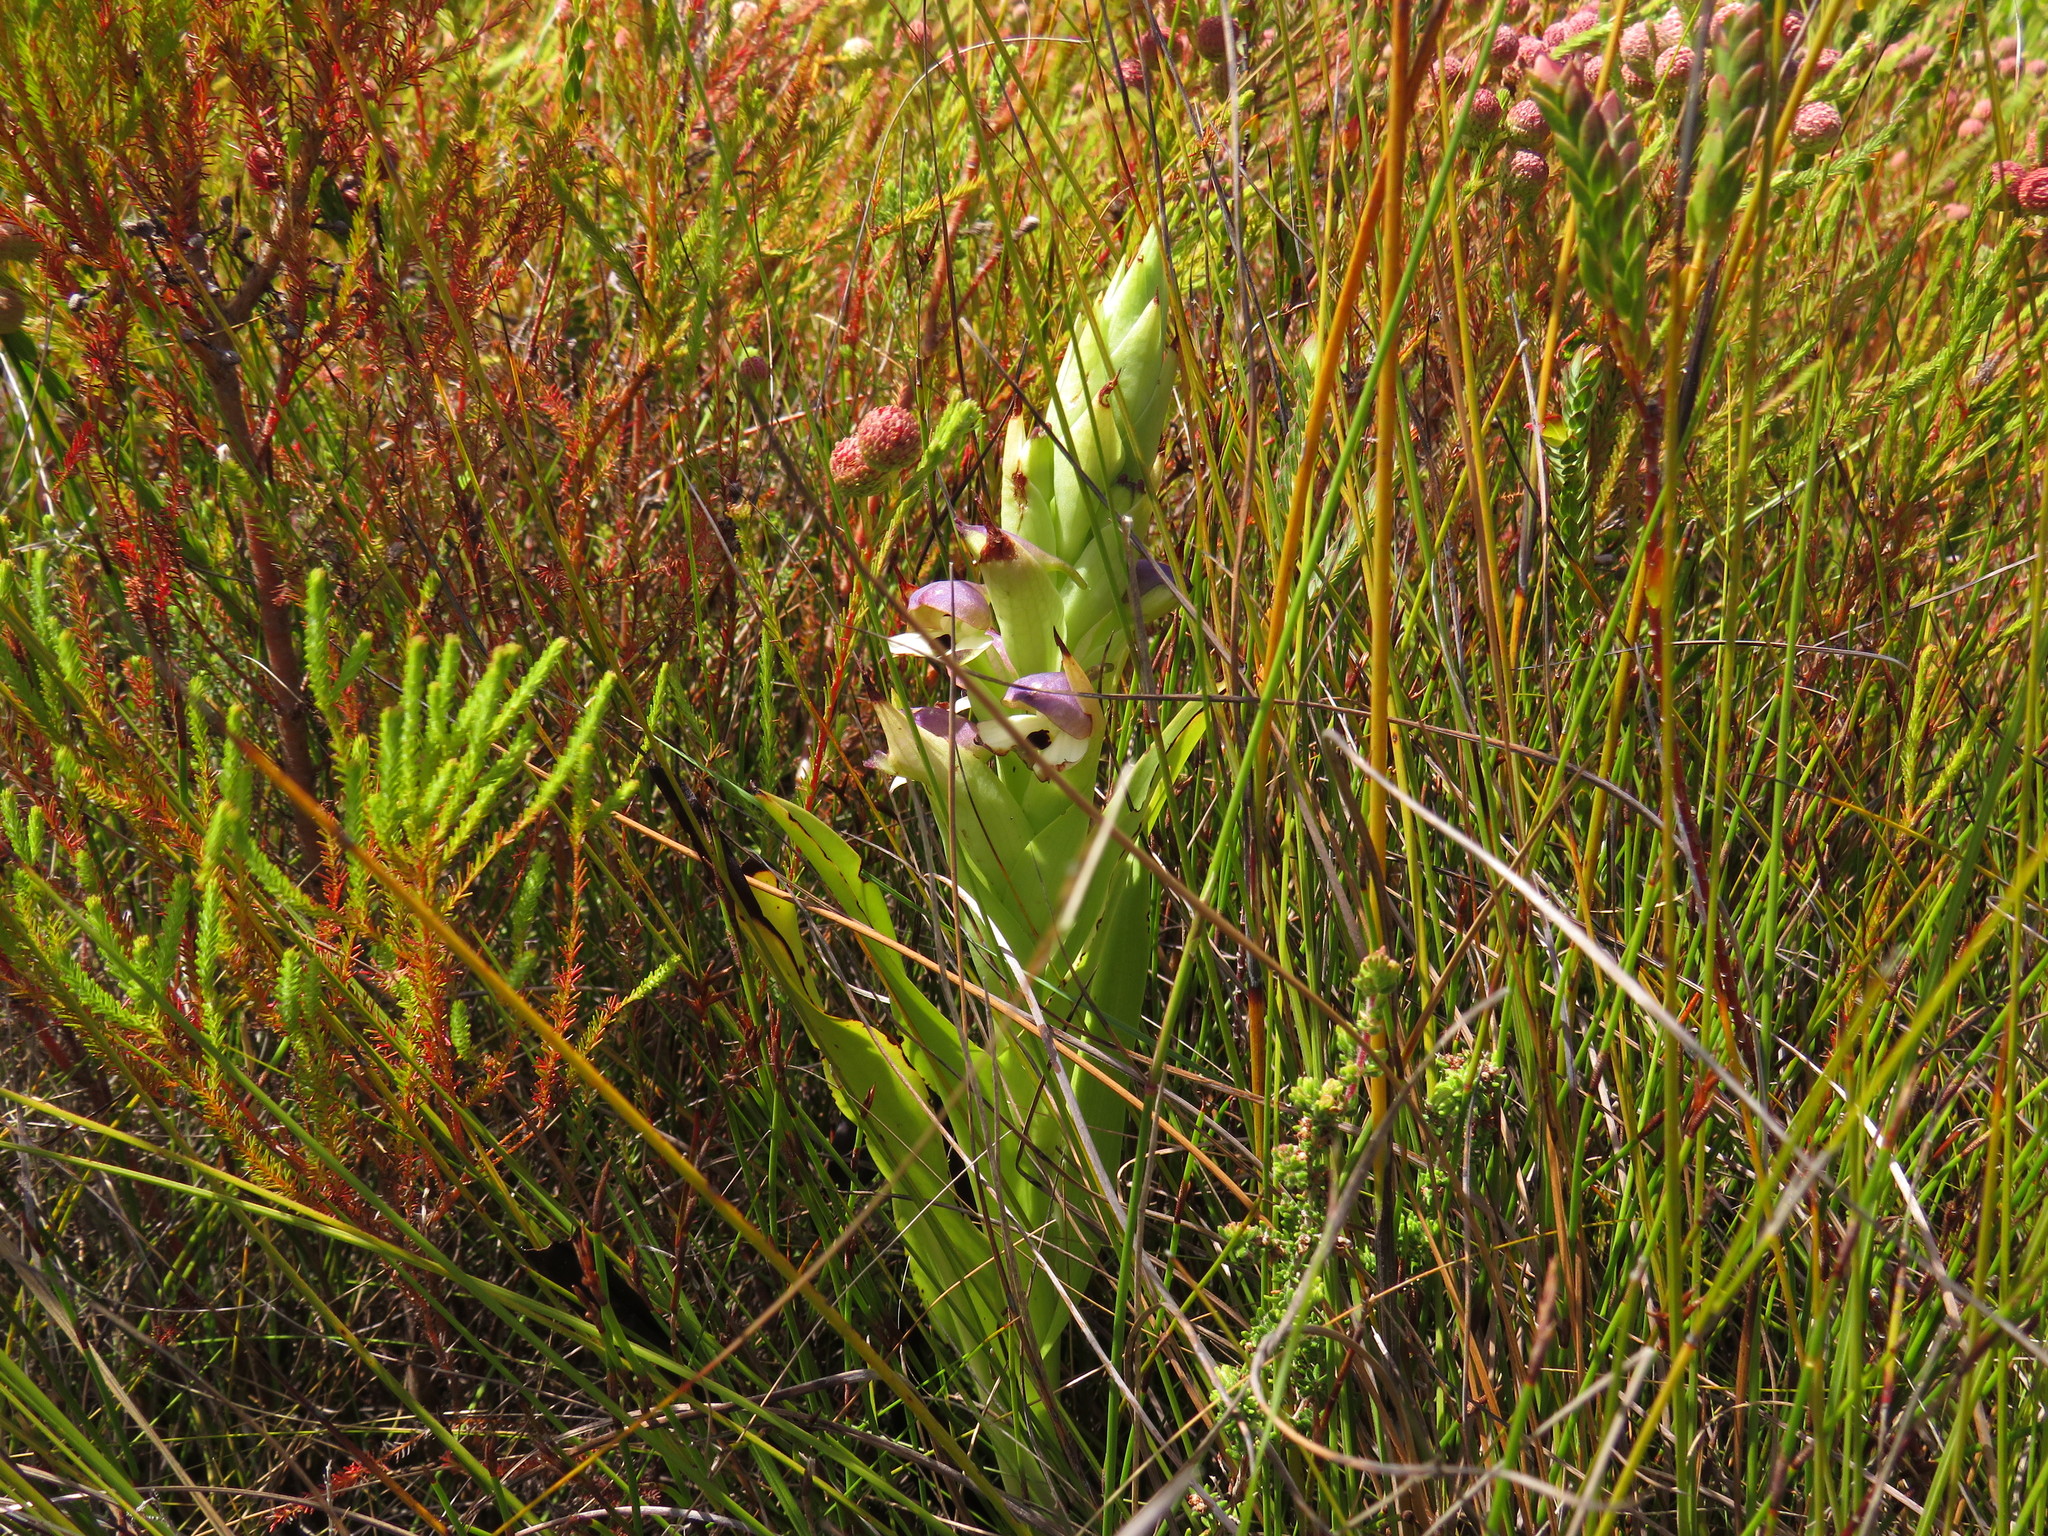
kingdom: Plantae
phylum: Tracheophyta
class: Liliopsida
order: Asparagales
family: Orchidaceae
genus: Disa
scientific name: Disa cornuta
